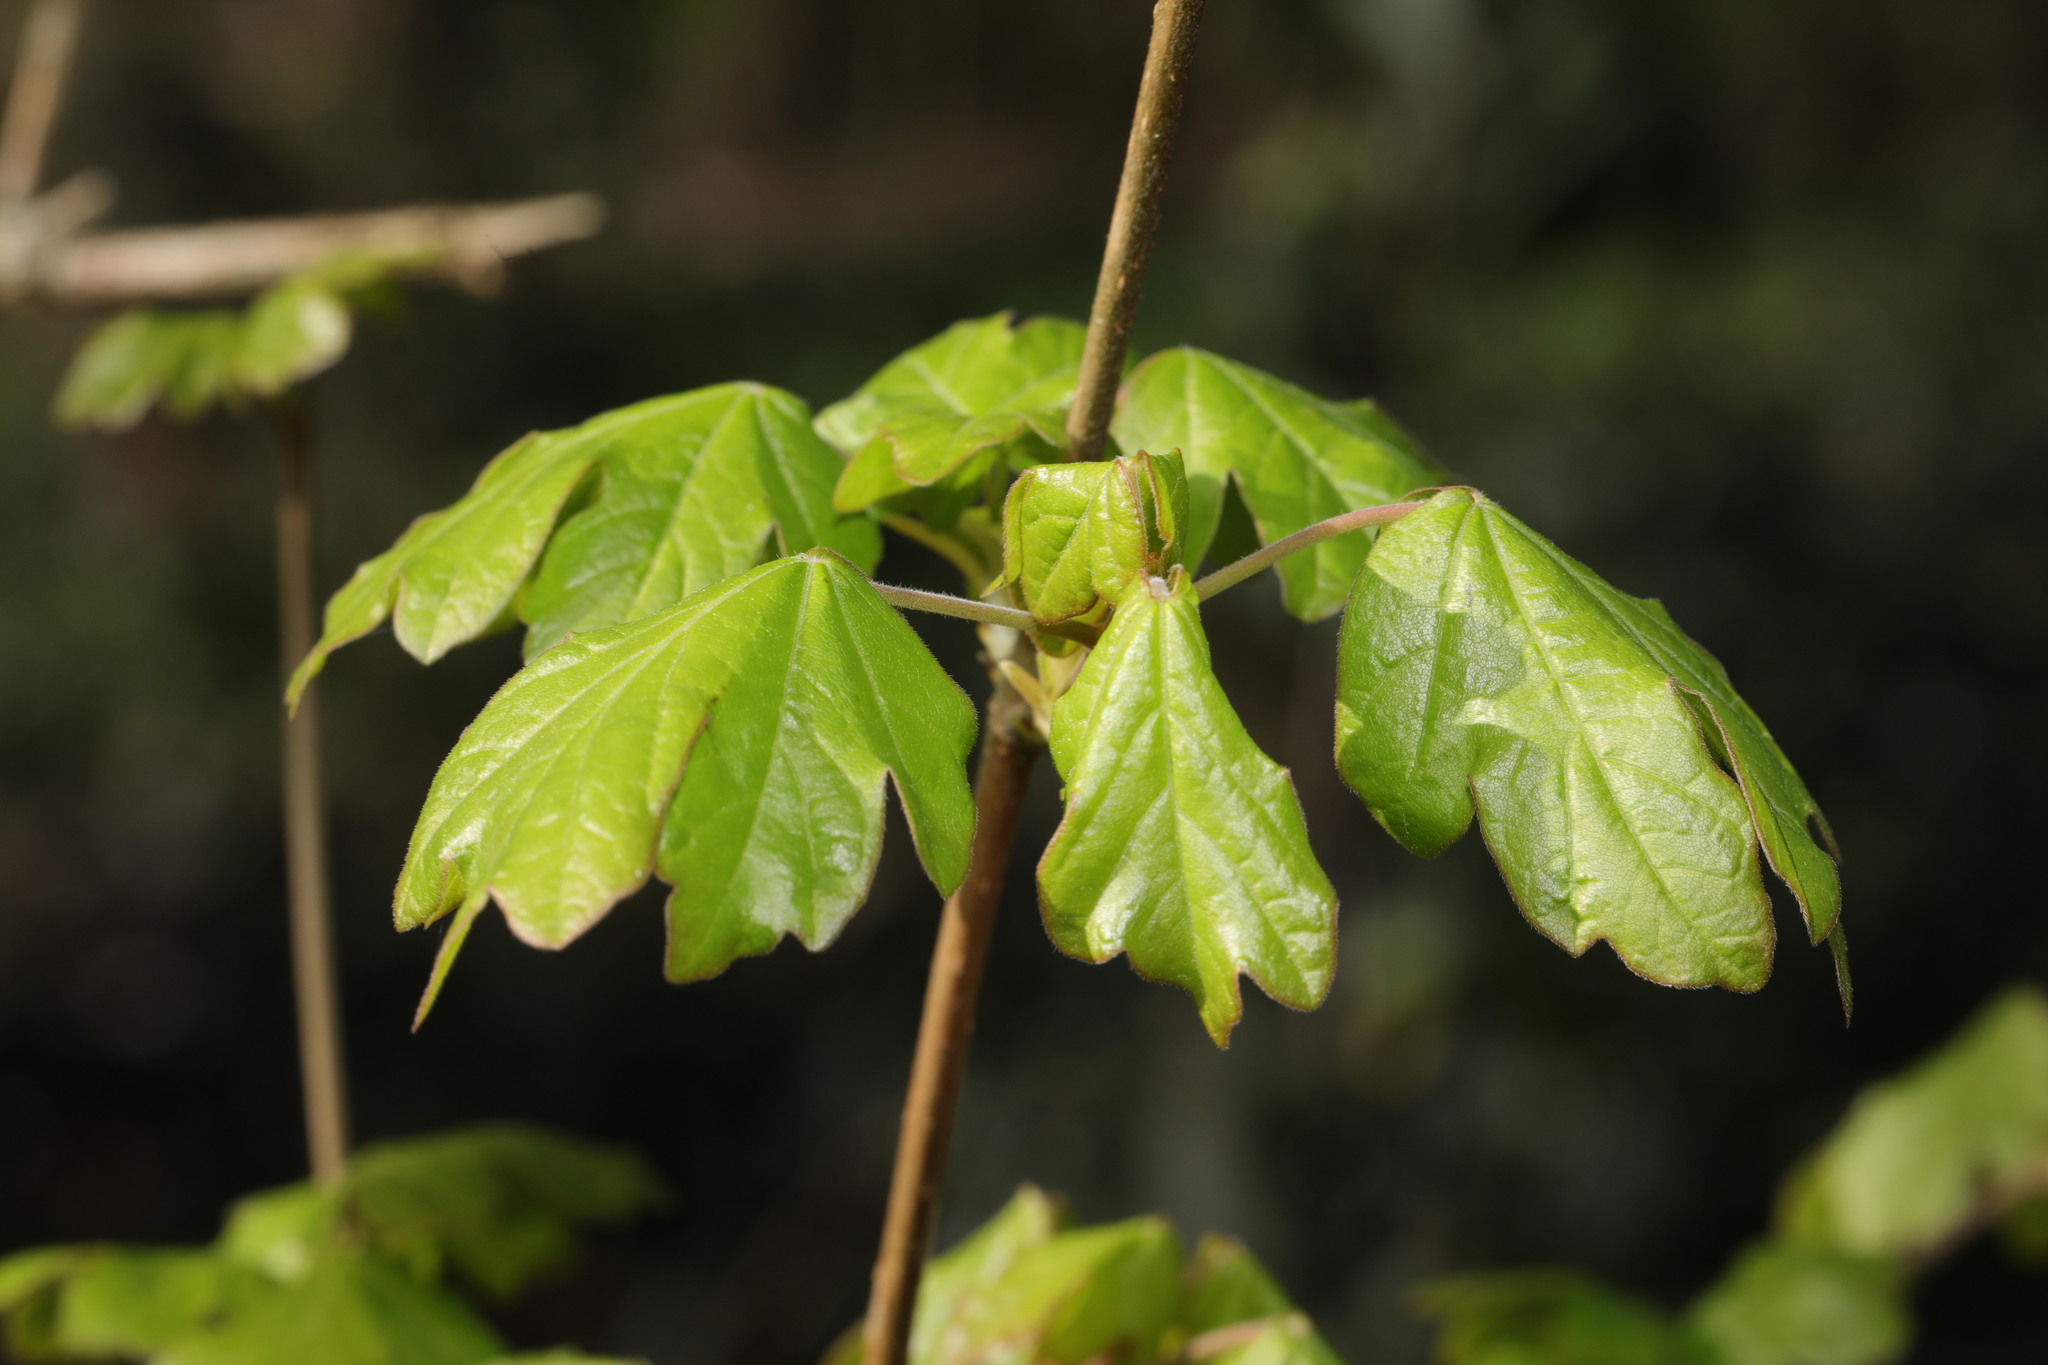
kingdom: Plantae
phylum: Tracheophyta
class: Magnoliopsida
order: Sapindales
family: Sapindaceae
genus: Acer
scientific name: Acer campestre
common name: Field maple
